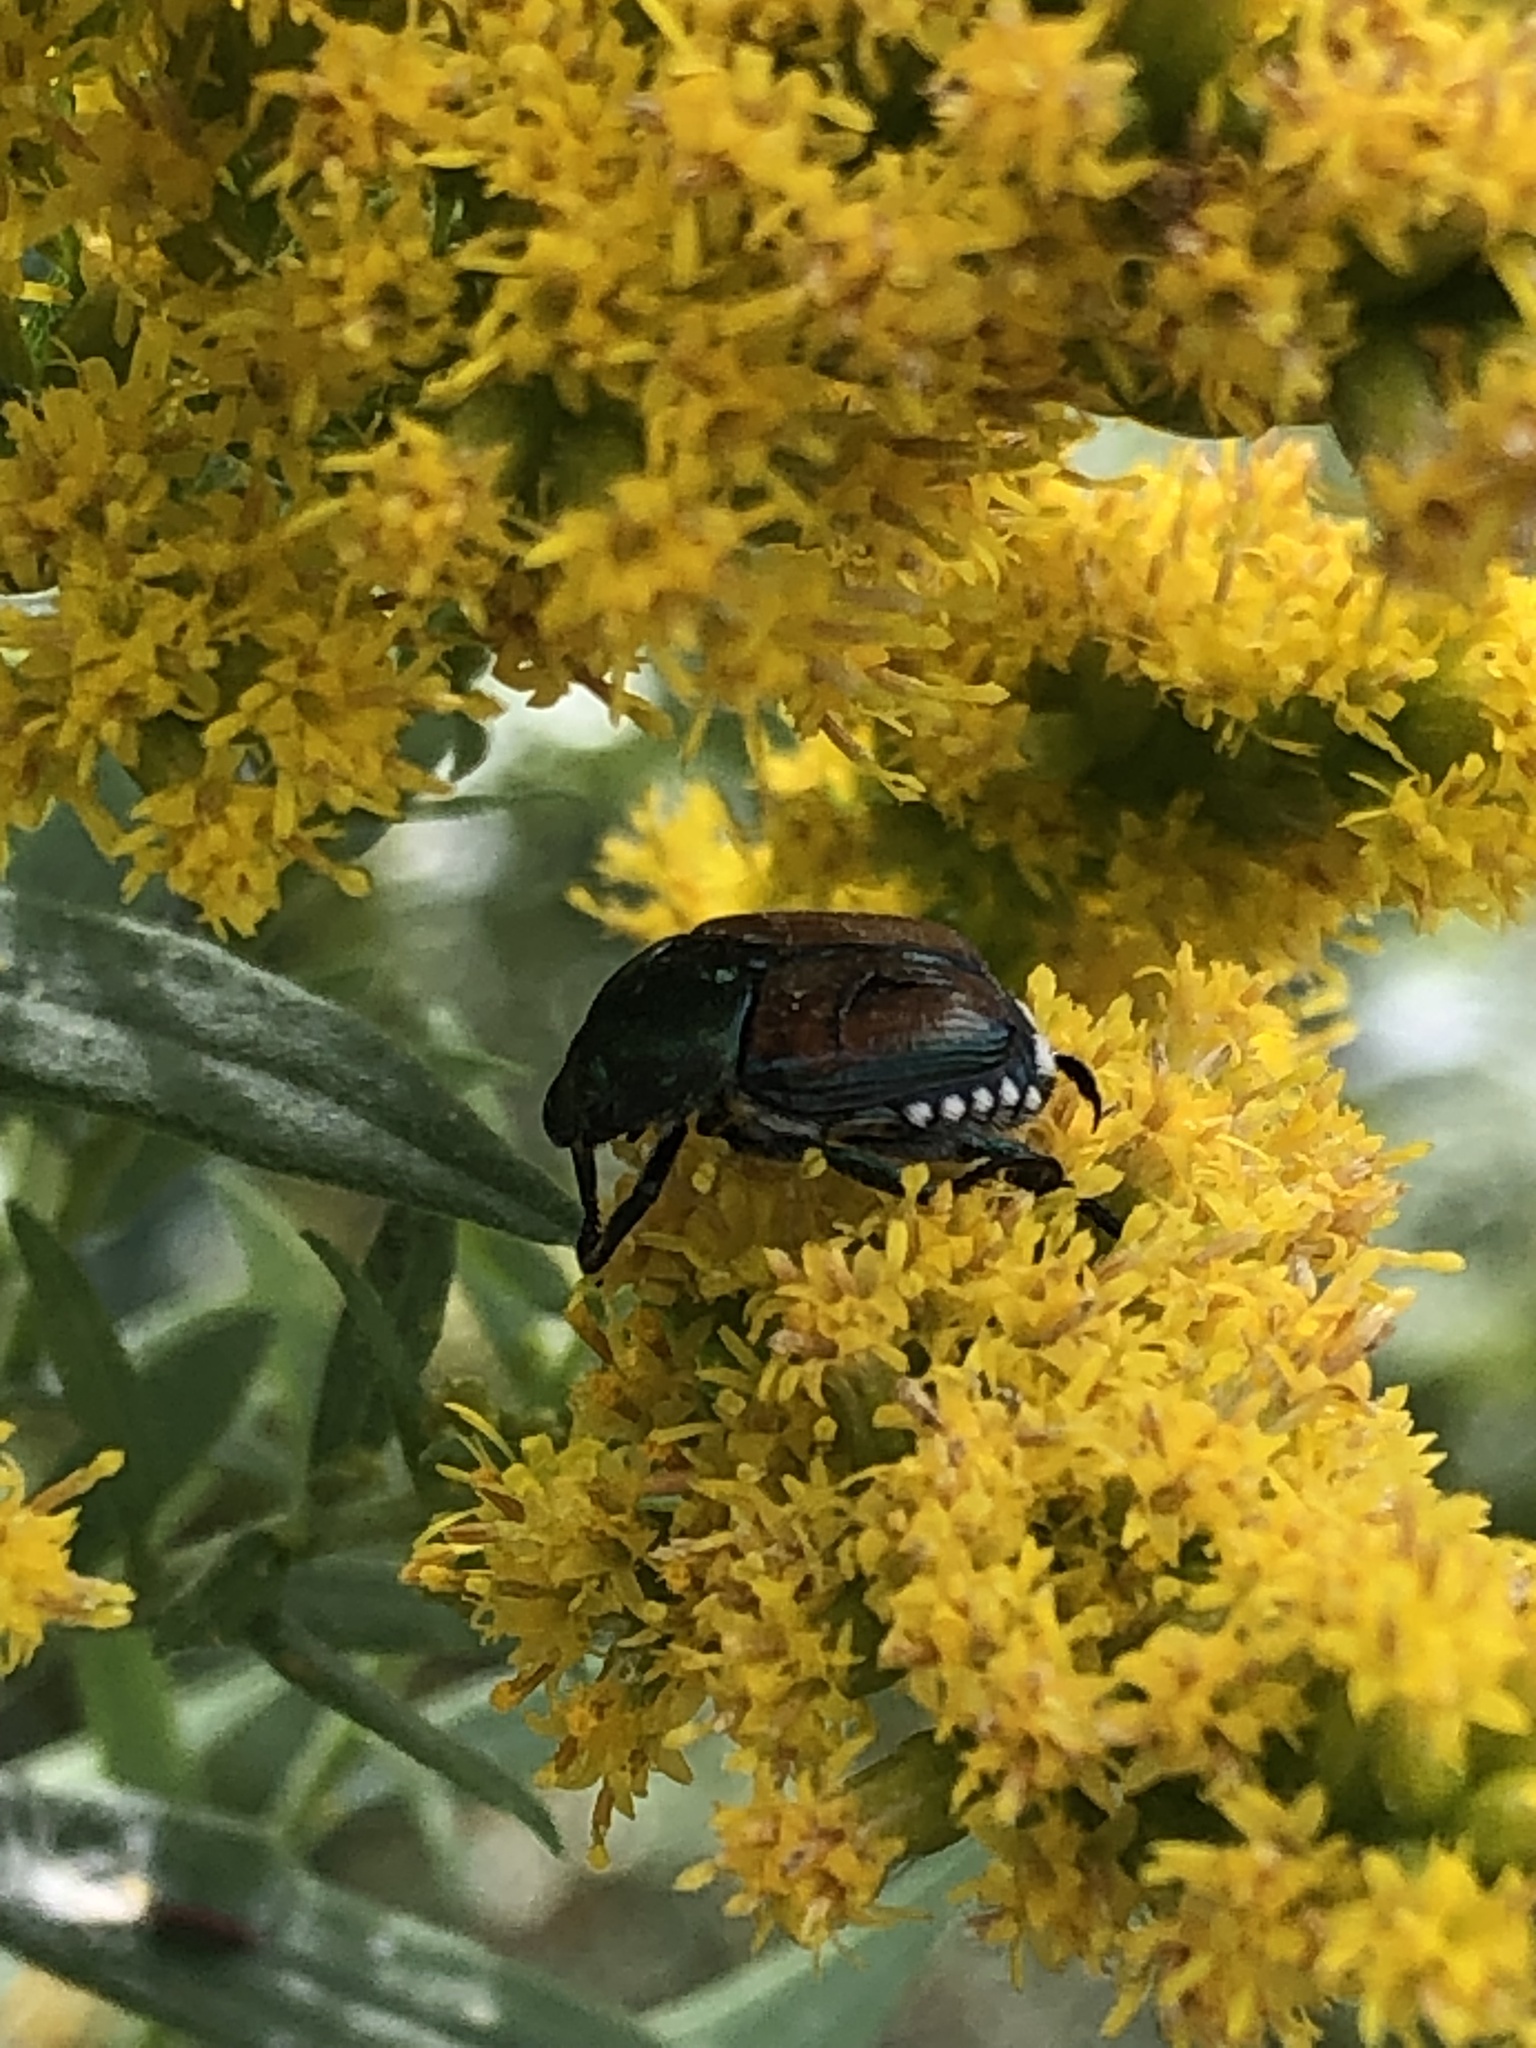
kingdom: Animalia
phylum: Arthropoda
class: Insecta
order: Coleoptera
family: Scarabaeidae
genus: Popillia
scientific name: Popillia japonica
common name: Japanese beetle
